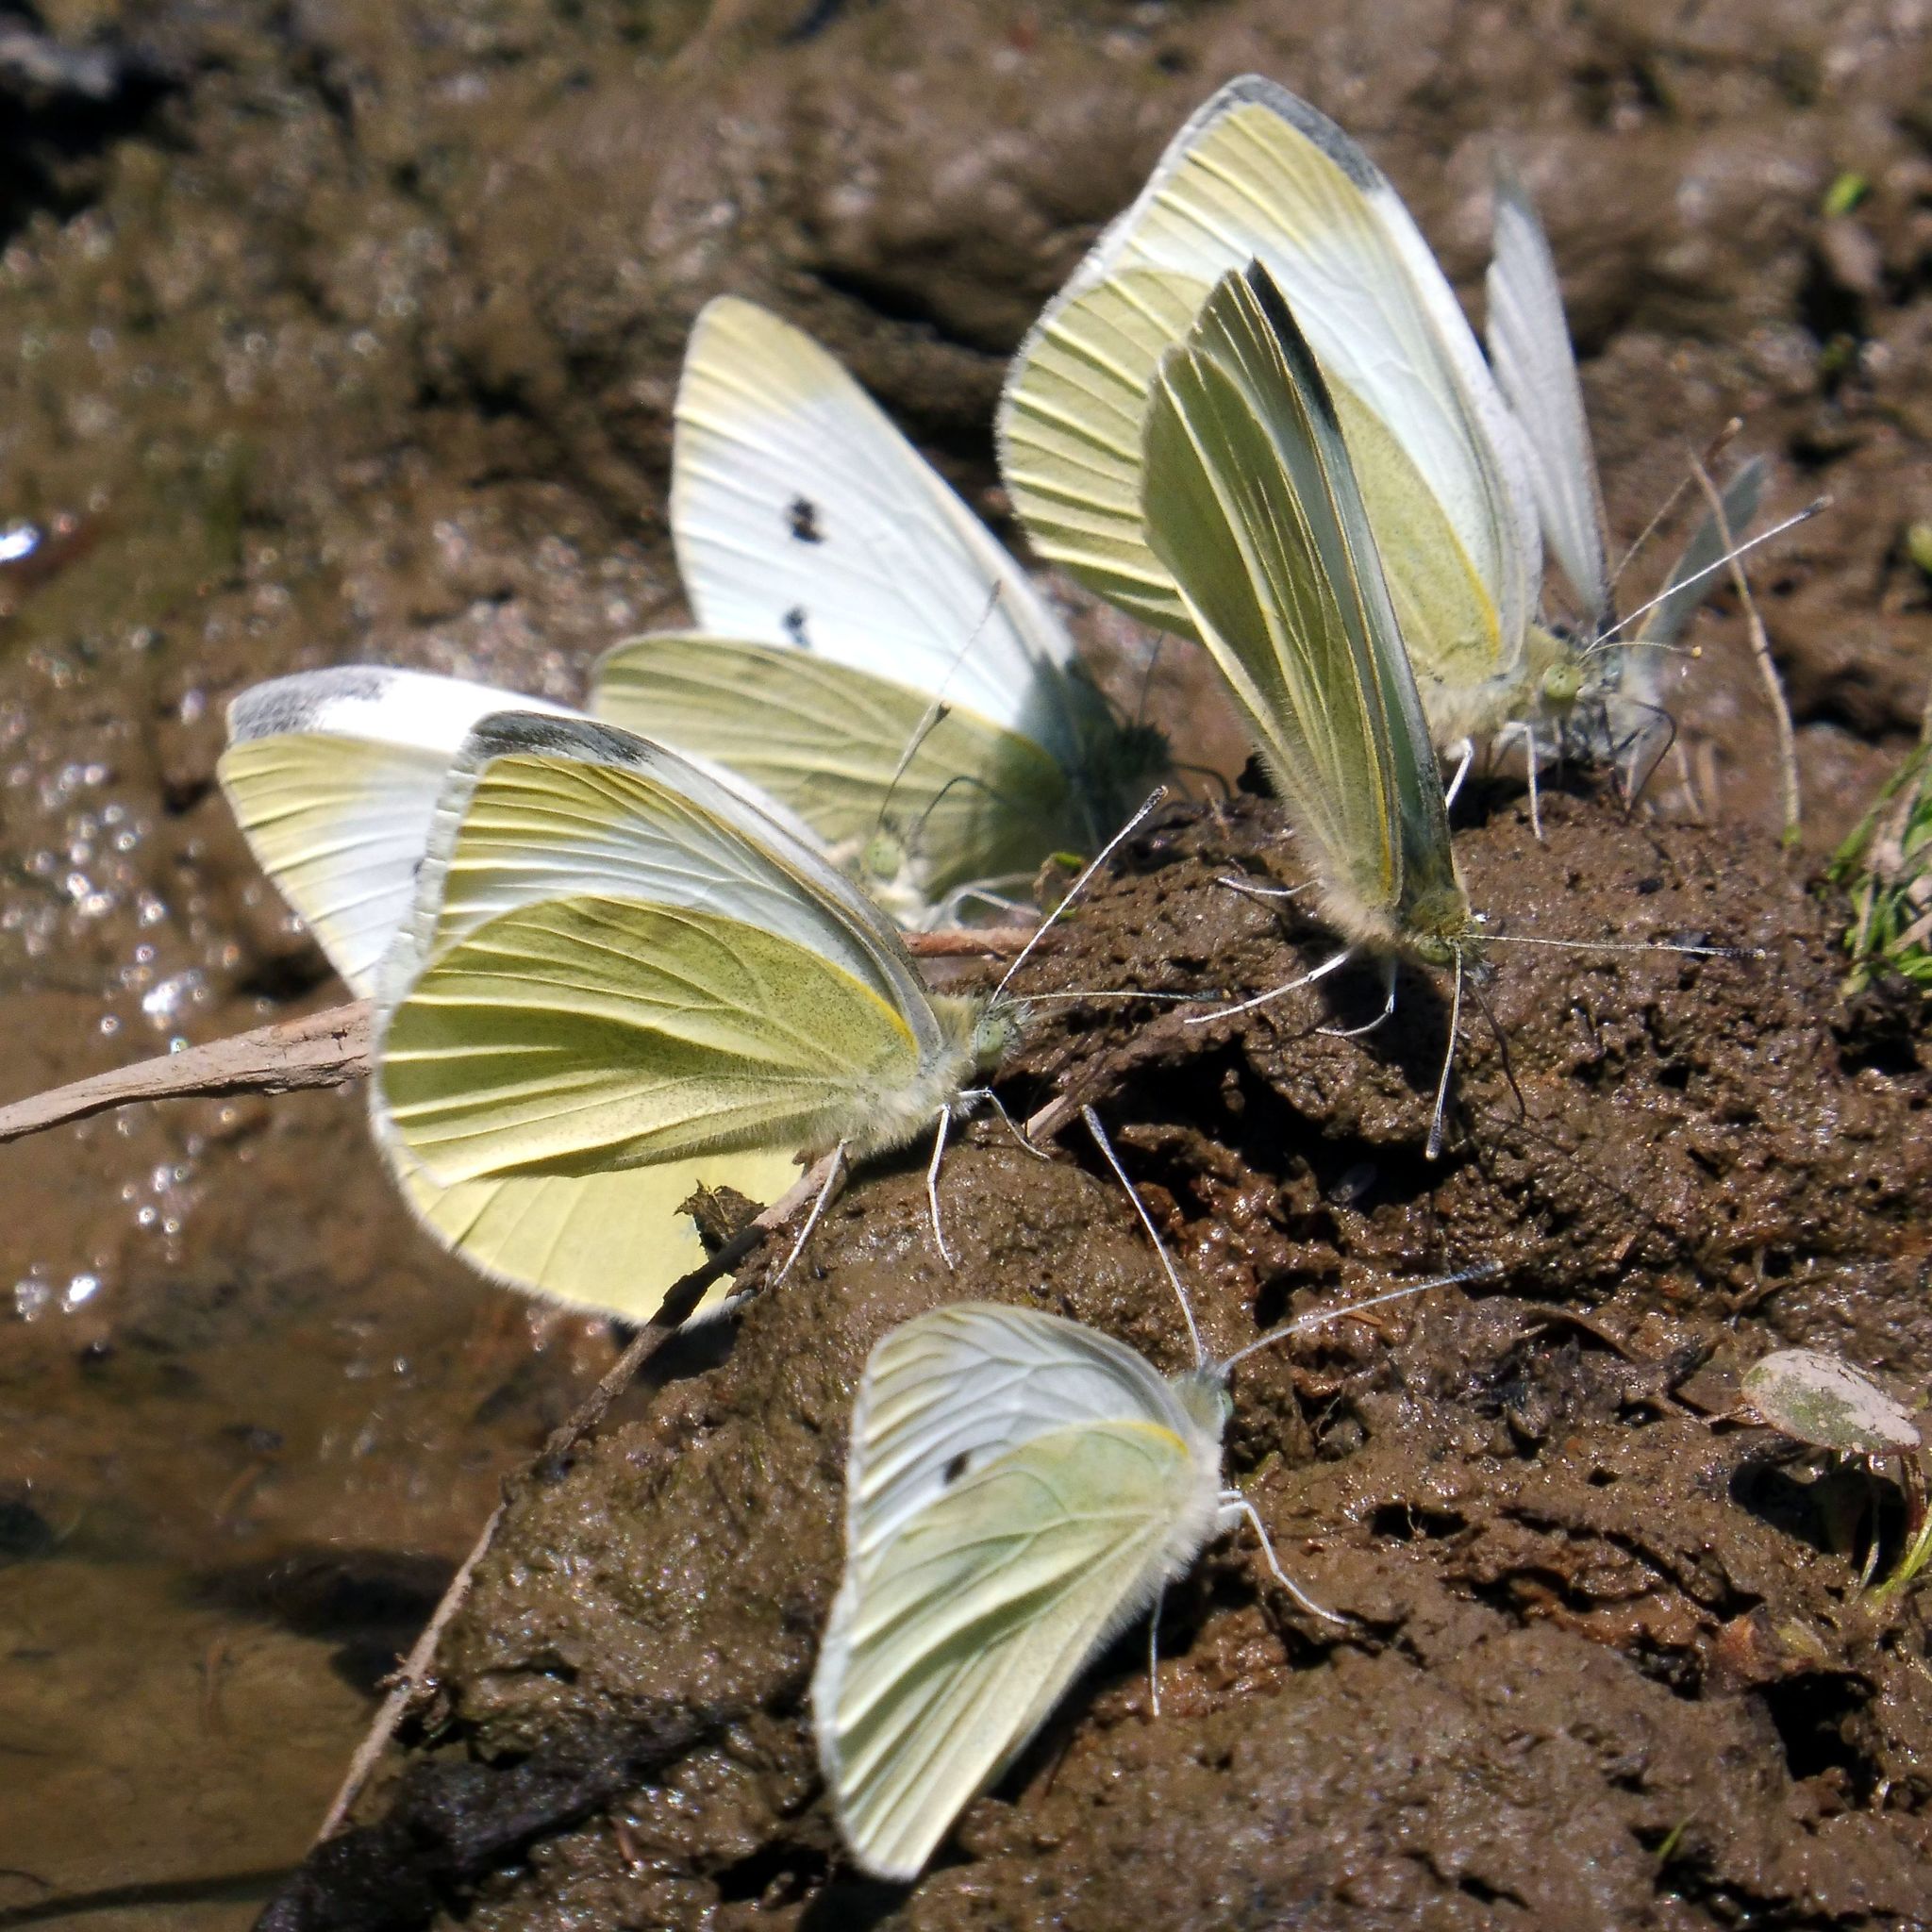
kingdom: Animalia
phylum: Arthropoda
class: Insecta
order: Lepidoptera
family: Pieridae
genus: Pieris
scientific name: Pieris rapae
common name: Small white
